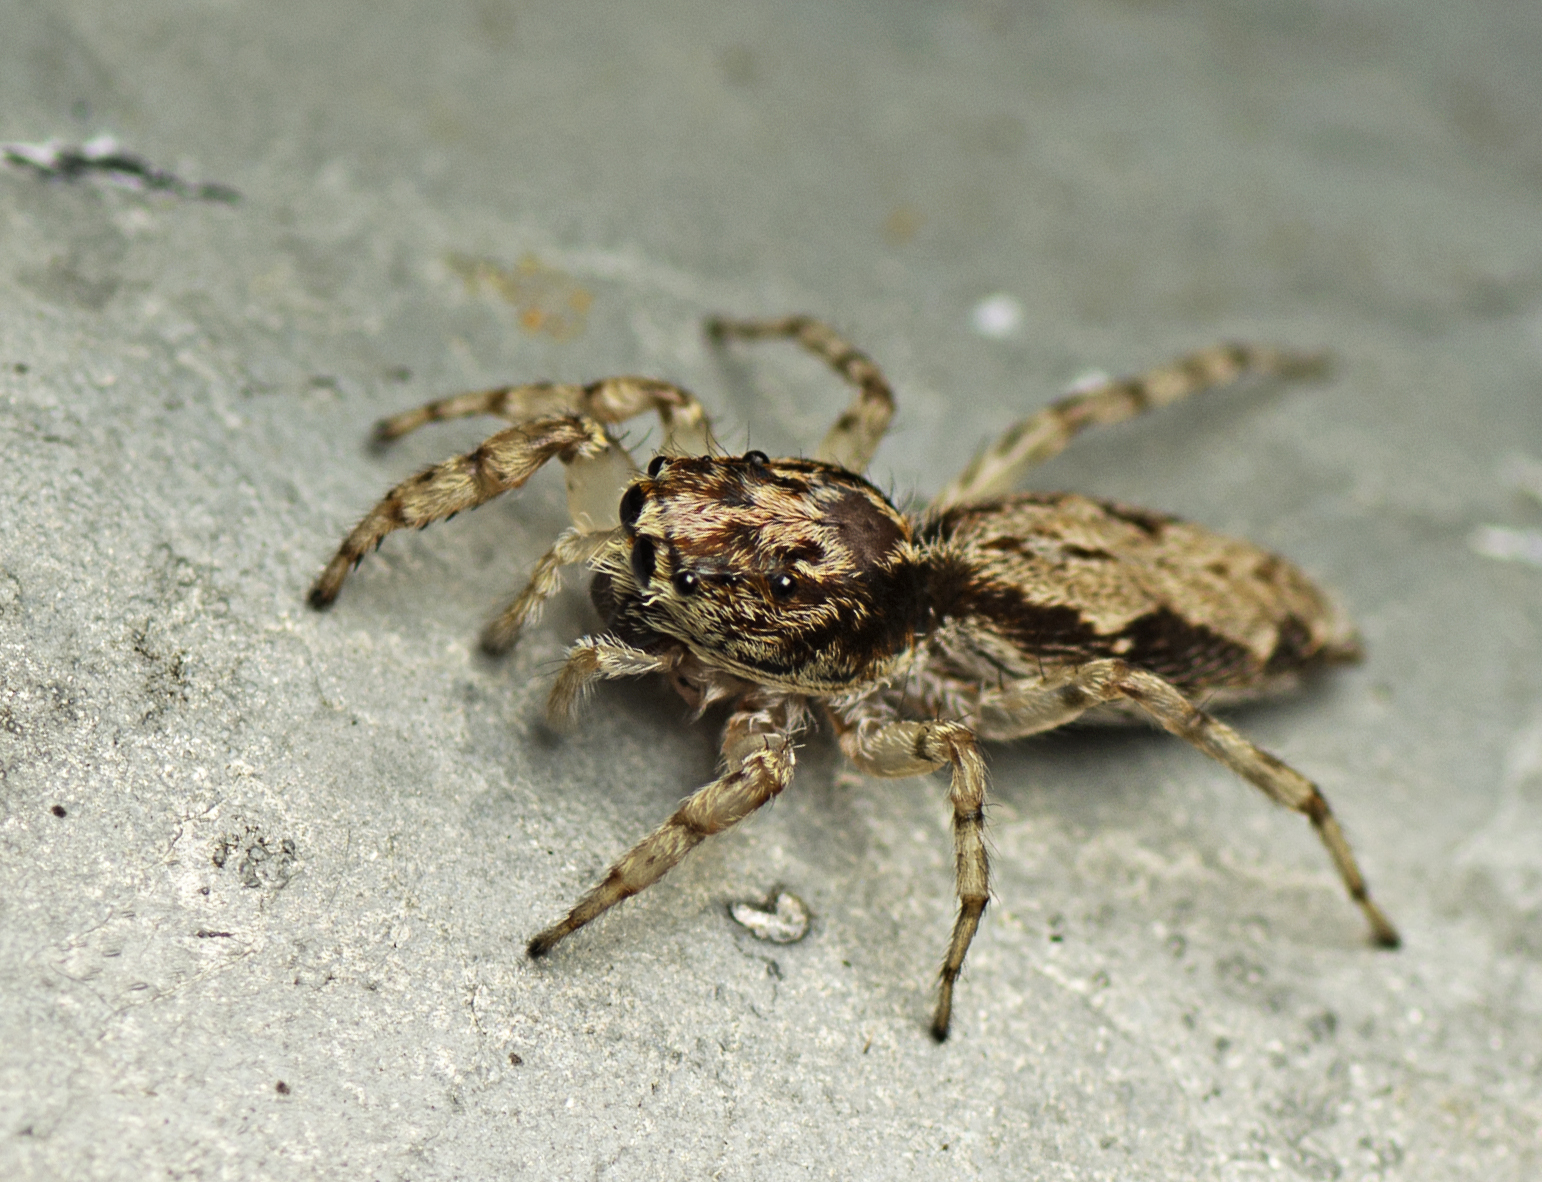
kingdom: Animalia
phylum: Arthropoda
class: Arachnida
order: Araneae
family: Salticidae
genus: Apricia
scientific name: Apricia bracteata
